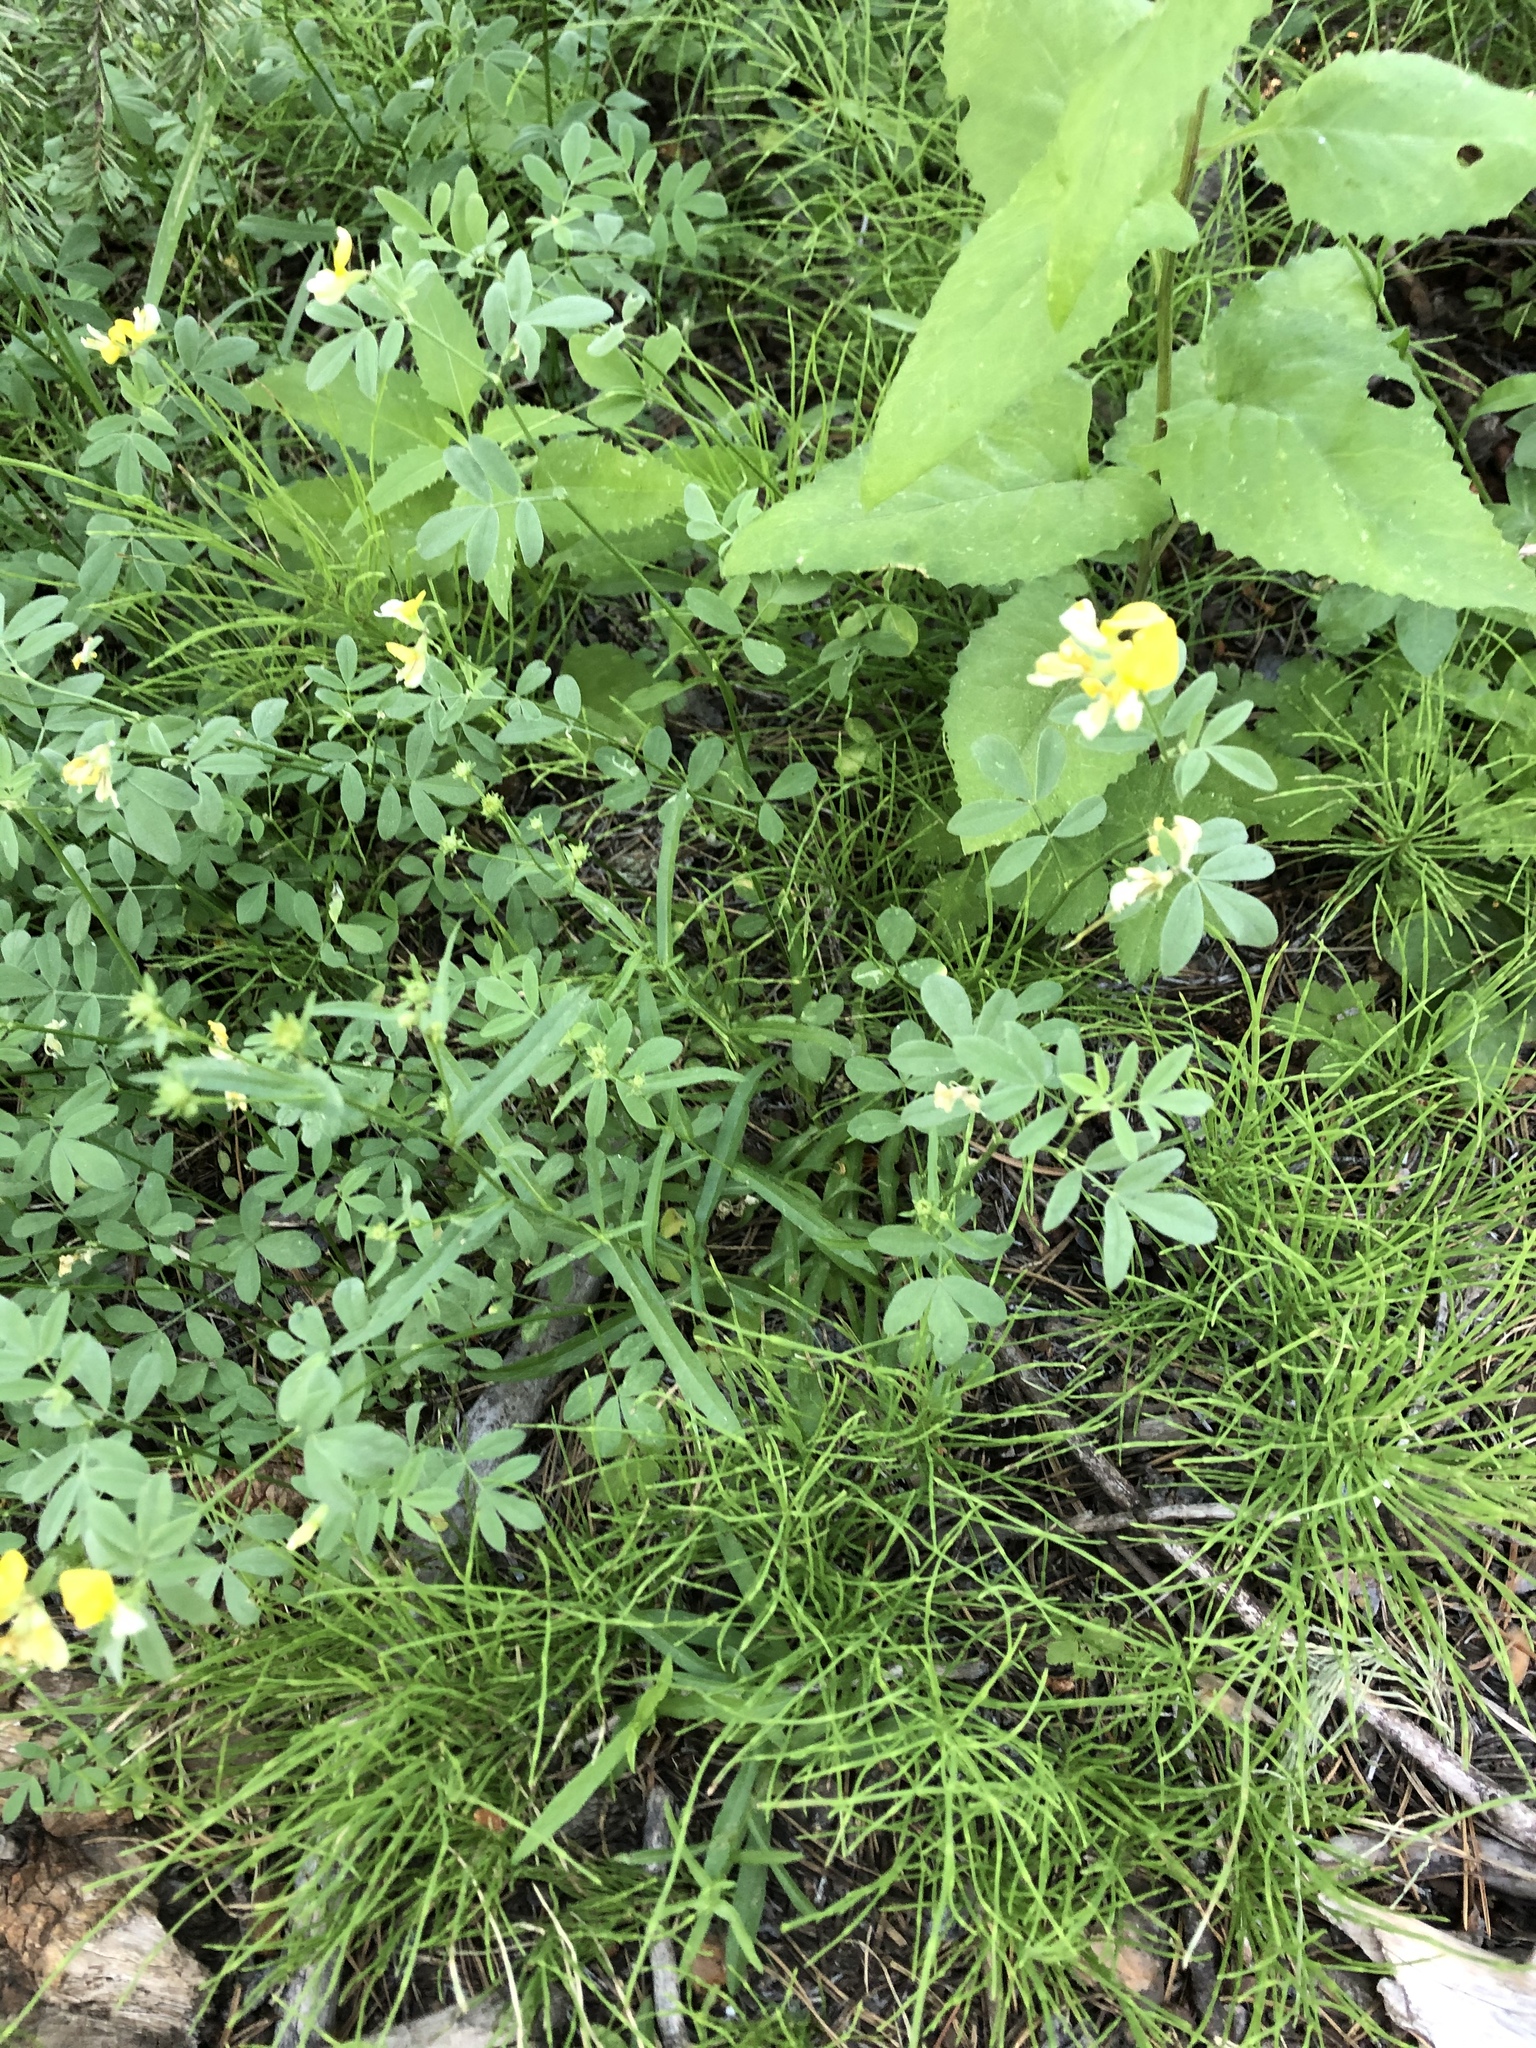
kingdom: Plantae
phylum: Tracheophyta
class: Magnoliopsida
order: Fabales
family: Fabaceae
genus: Hosackia
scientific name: Hosackia oblongifolia
